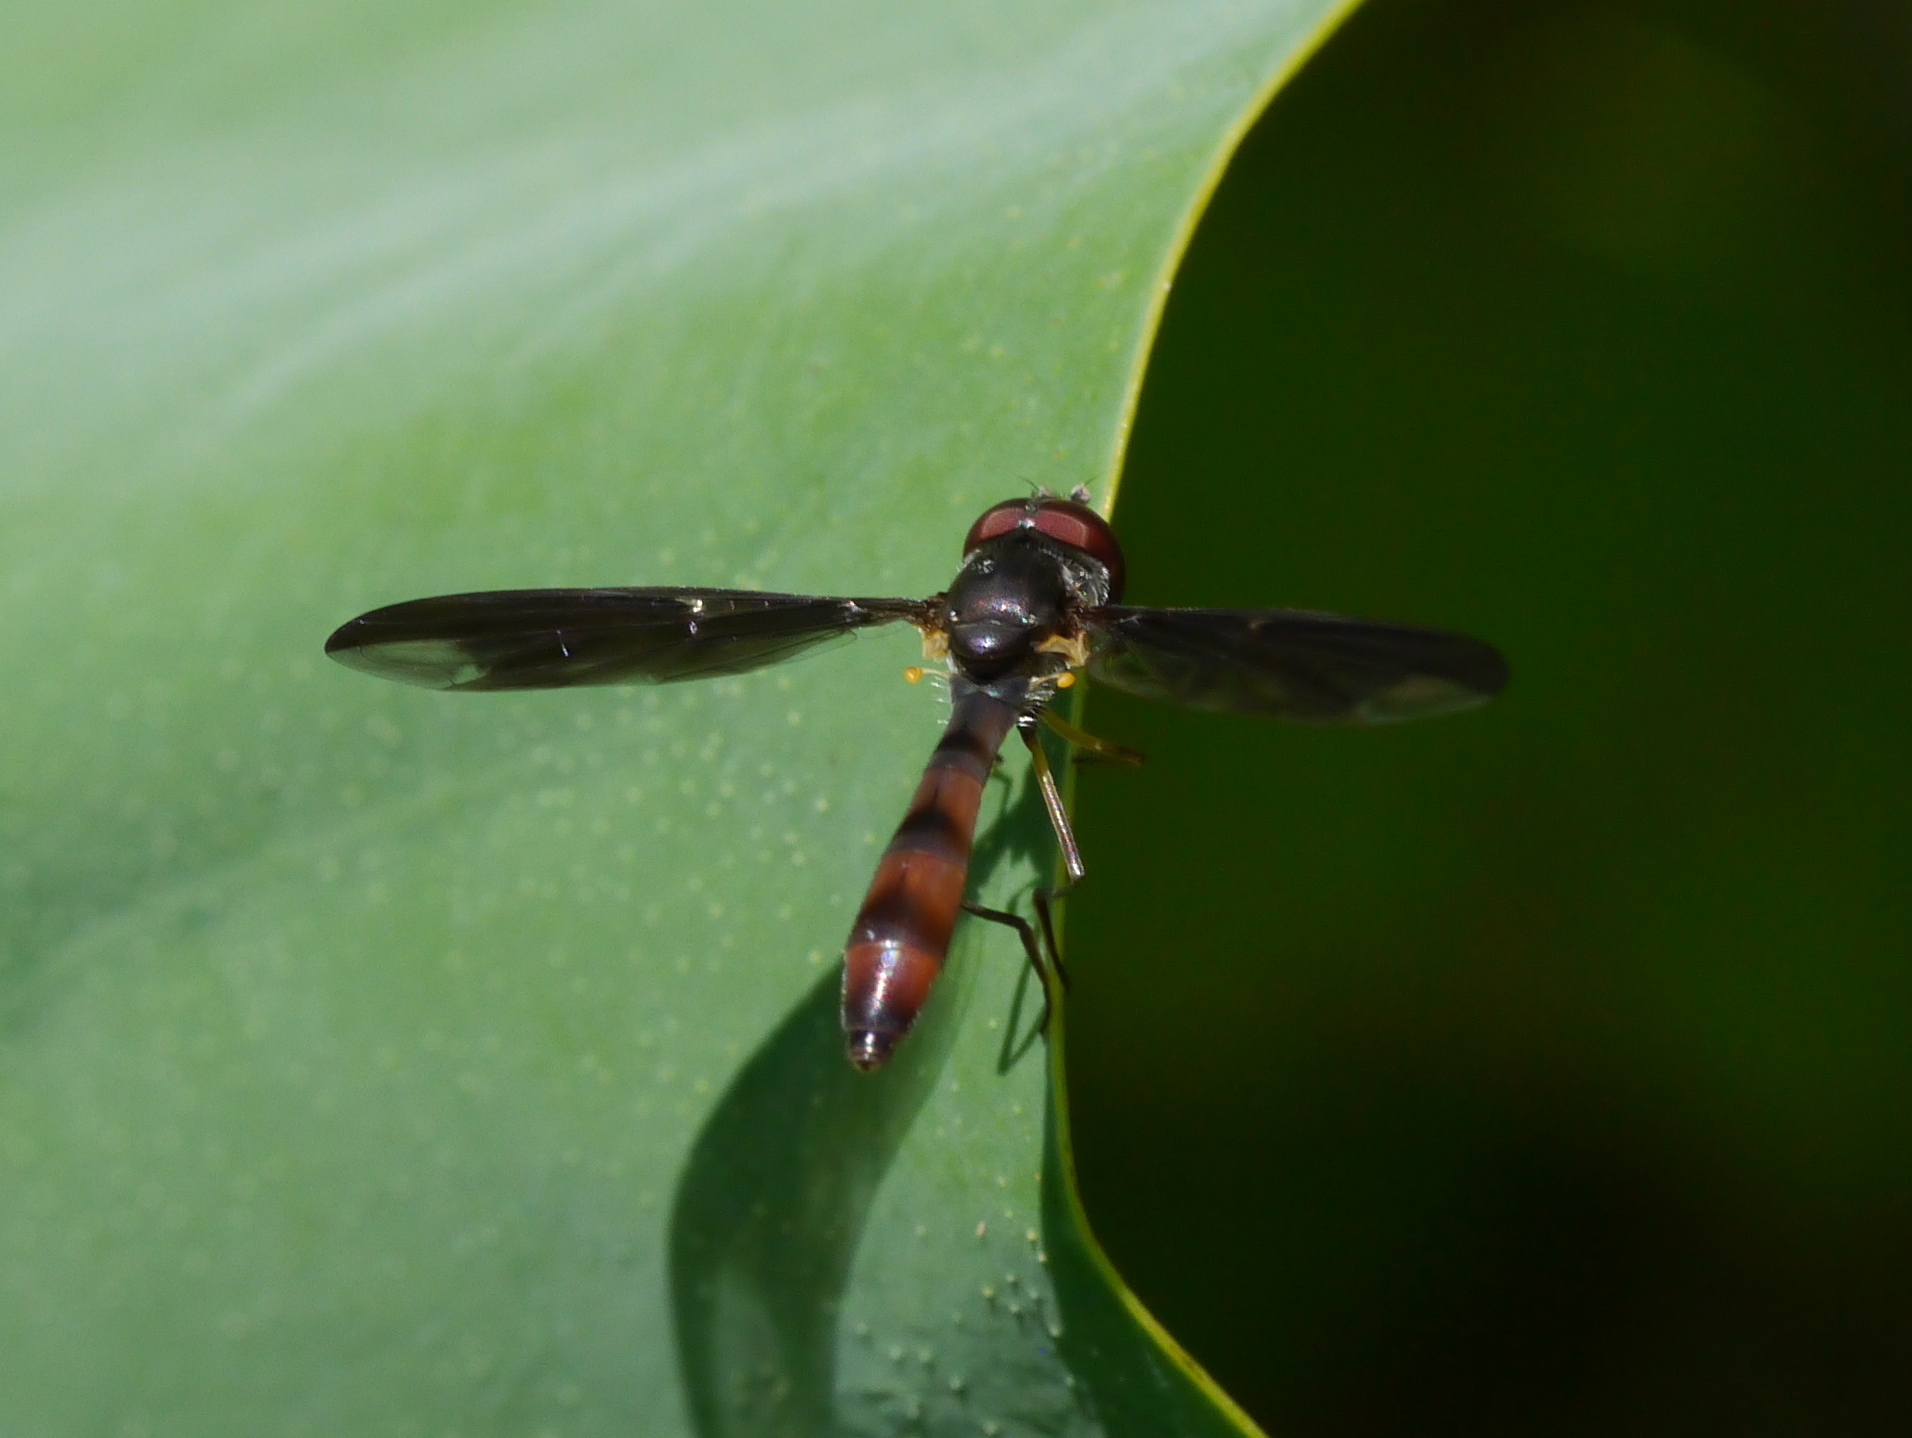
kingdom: Animalia
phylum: Arthropoda
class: Insecta
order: Diptera
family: Syrphidae
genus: Ocyptamus
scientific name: Ocyptamus fuscipennis
